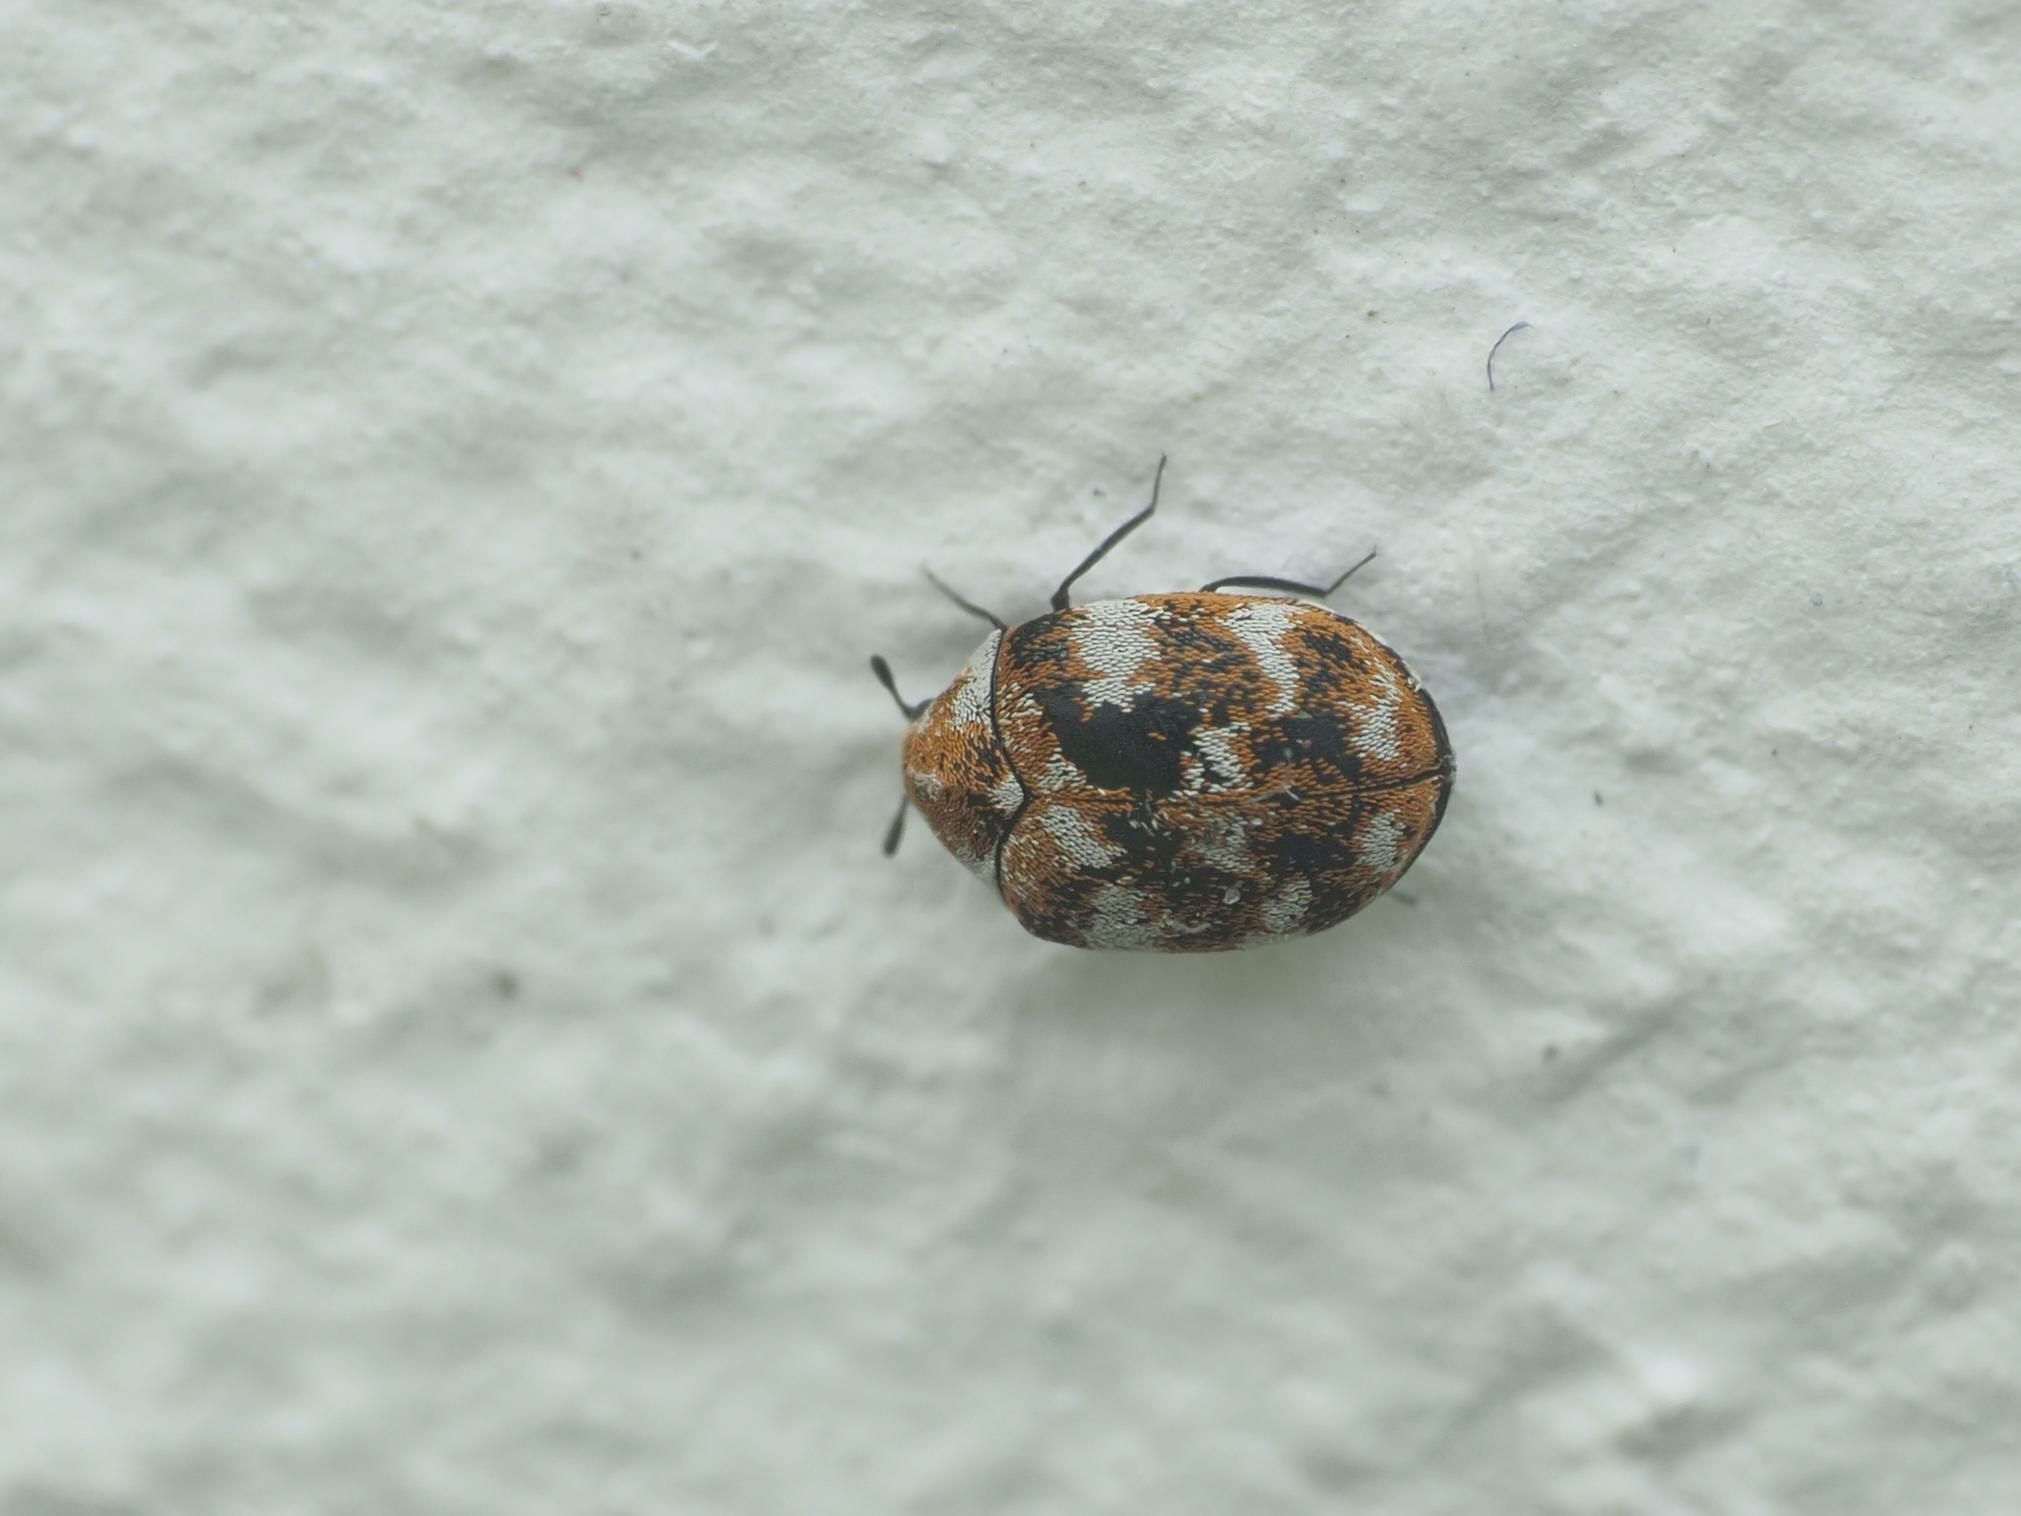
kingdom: Animalia
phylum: Arthropoda
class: Insecta
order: Coleoptera
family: Dermestidae
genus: Anthrenus
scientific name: Anthrenus verbasci
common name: Varied carpet beetle
